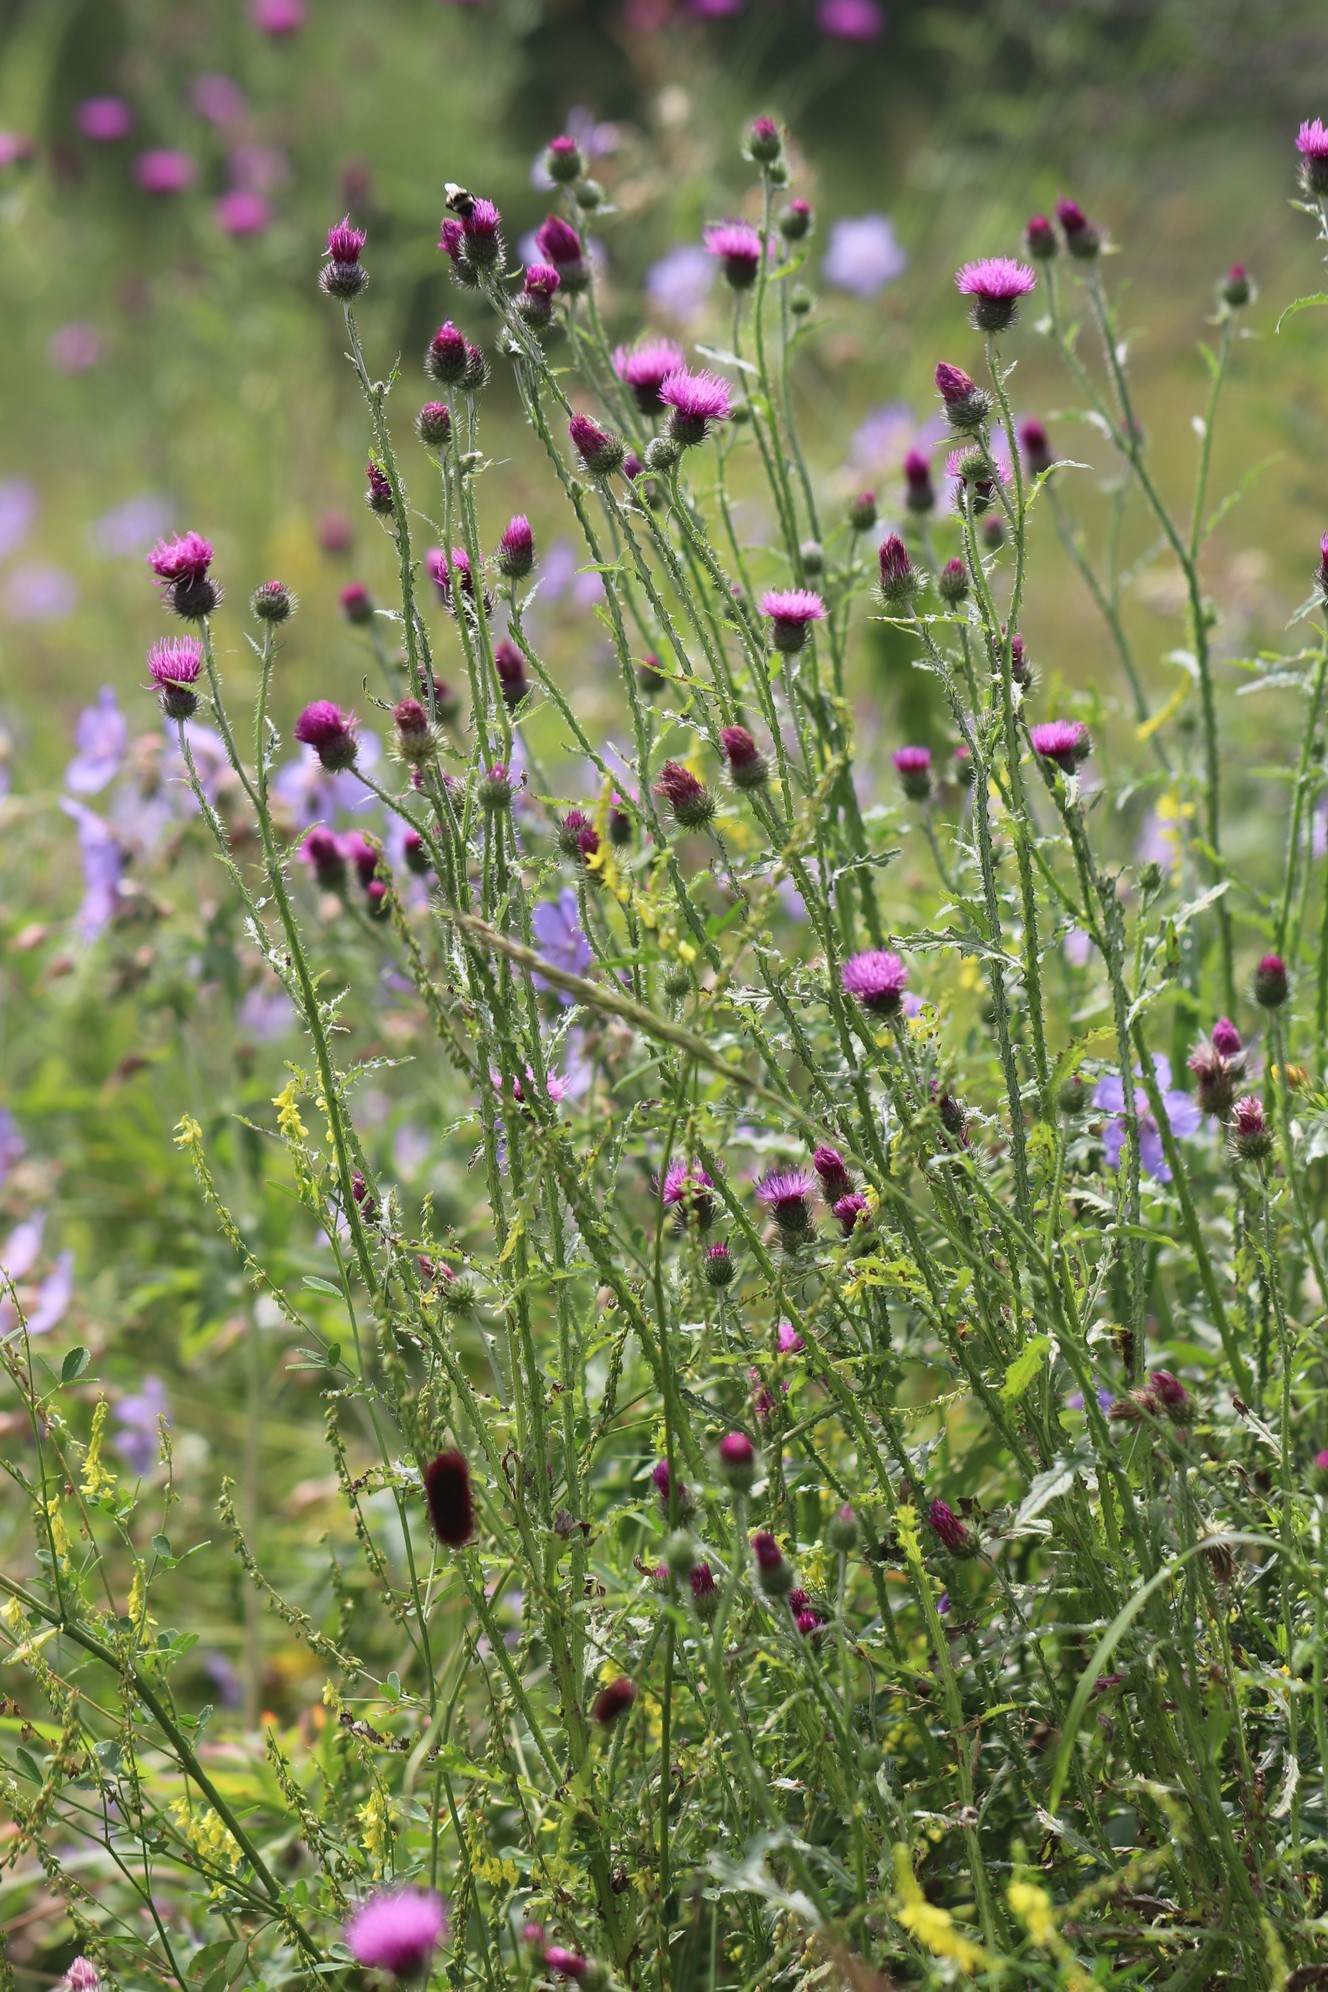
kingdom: Plantae
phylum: Tracheophyta
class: Magnoliopsida
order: Asterales
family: Asteraceae
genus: Carduus
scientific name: Carduus crispus
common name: Welted thistle
